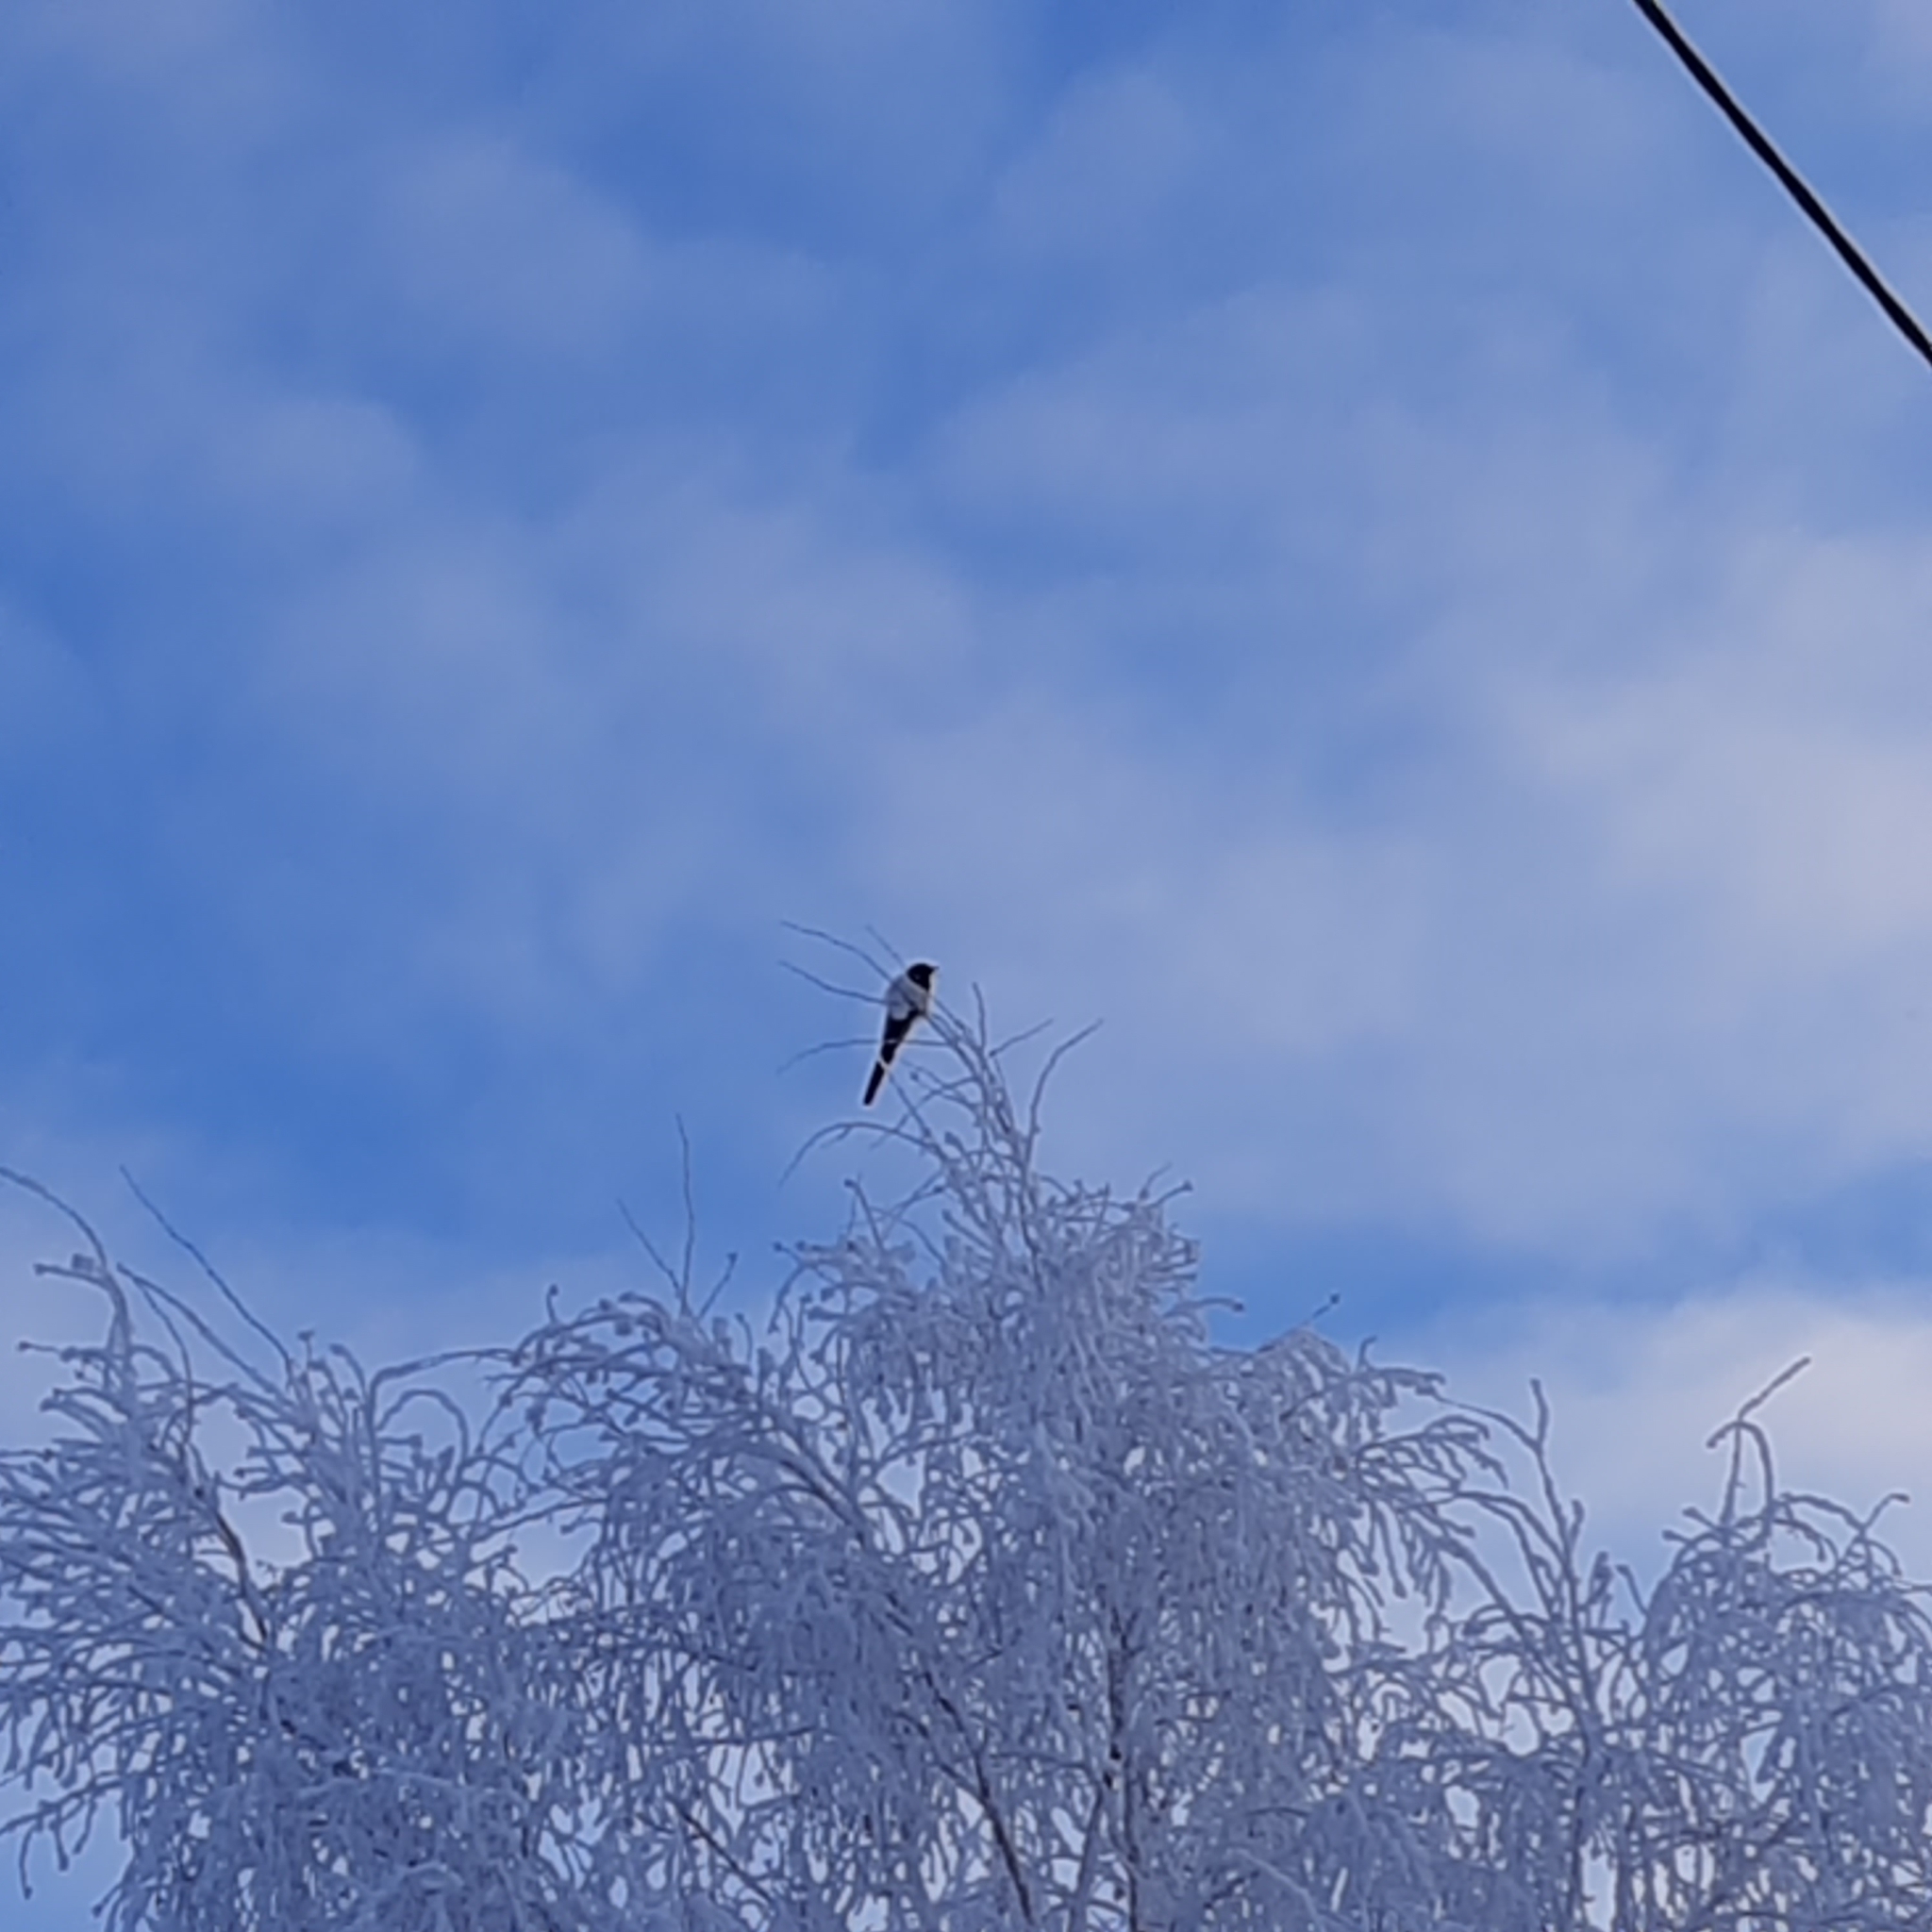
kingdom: Animalia
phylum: Chordata
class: Aves
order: Passeriformes
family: Corvidae
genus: Pica
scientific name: Pica pica
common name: Eurasian magpie
